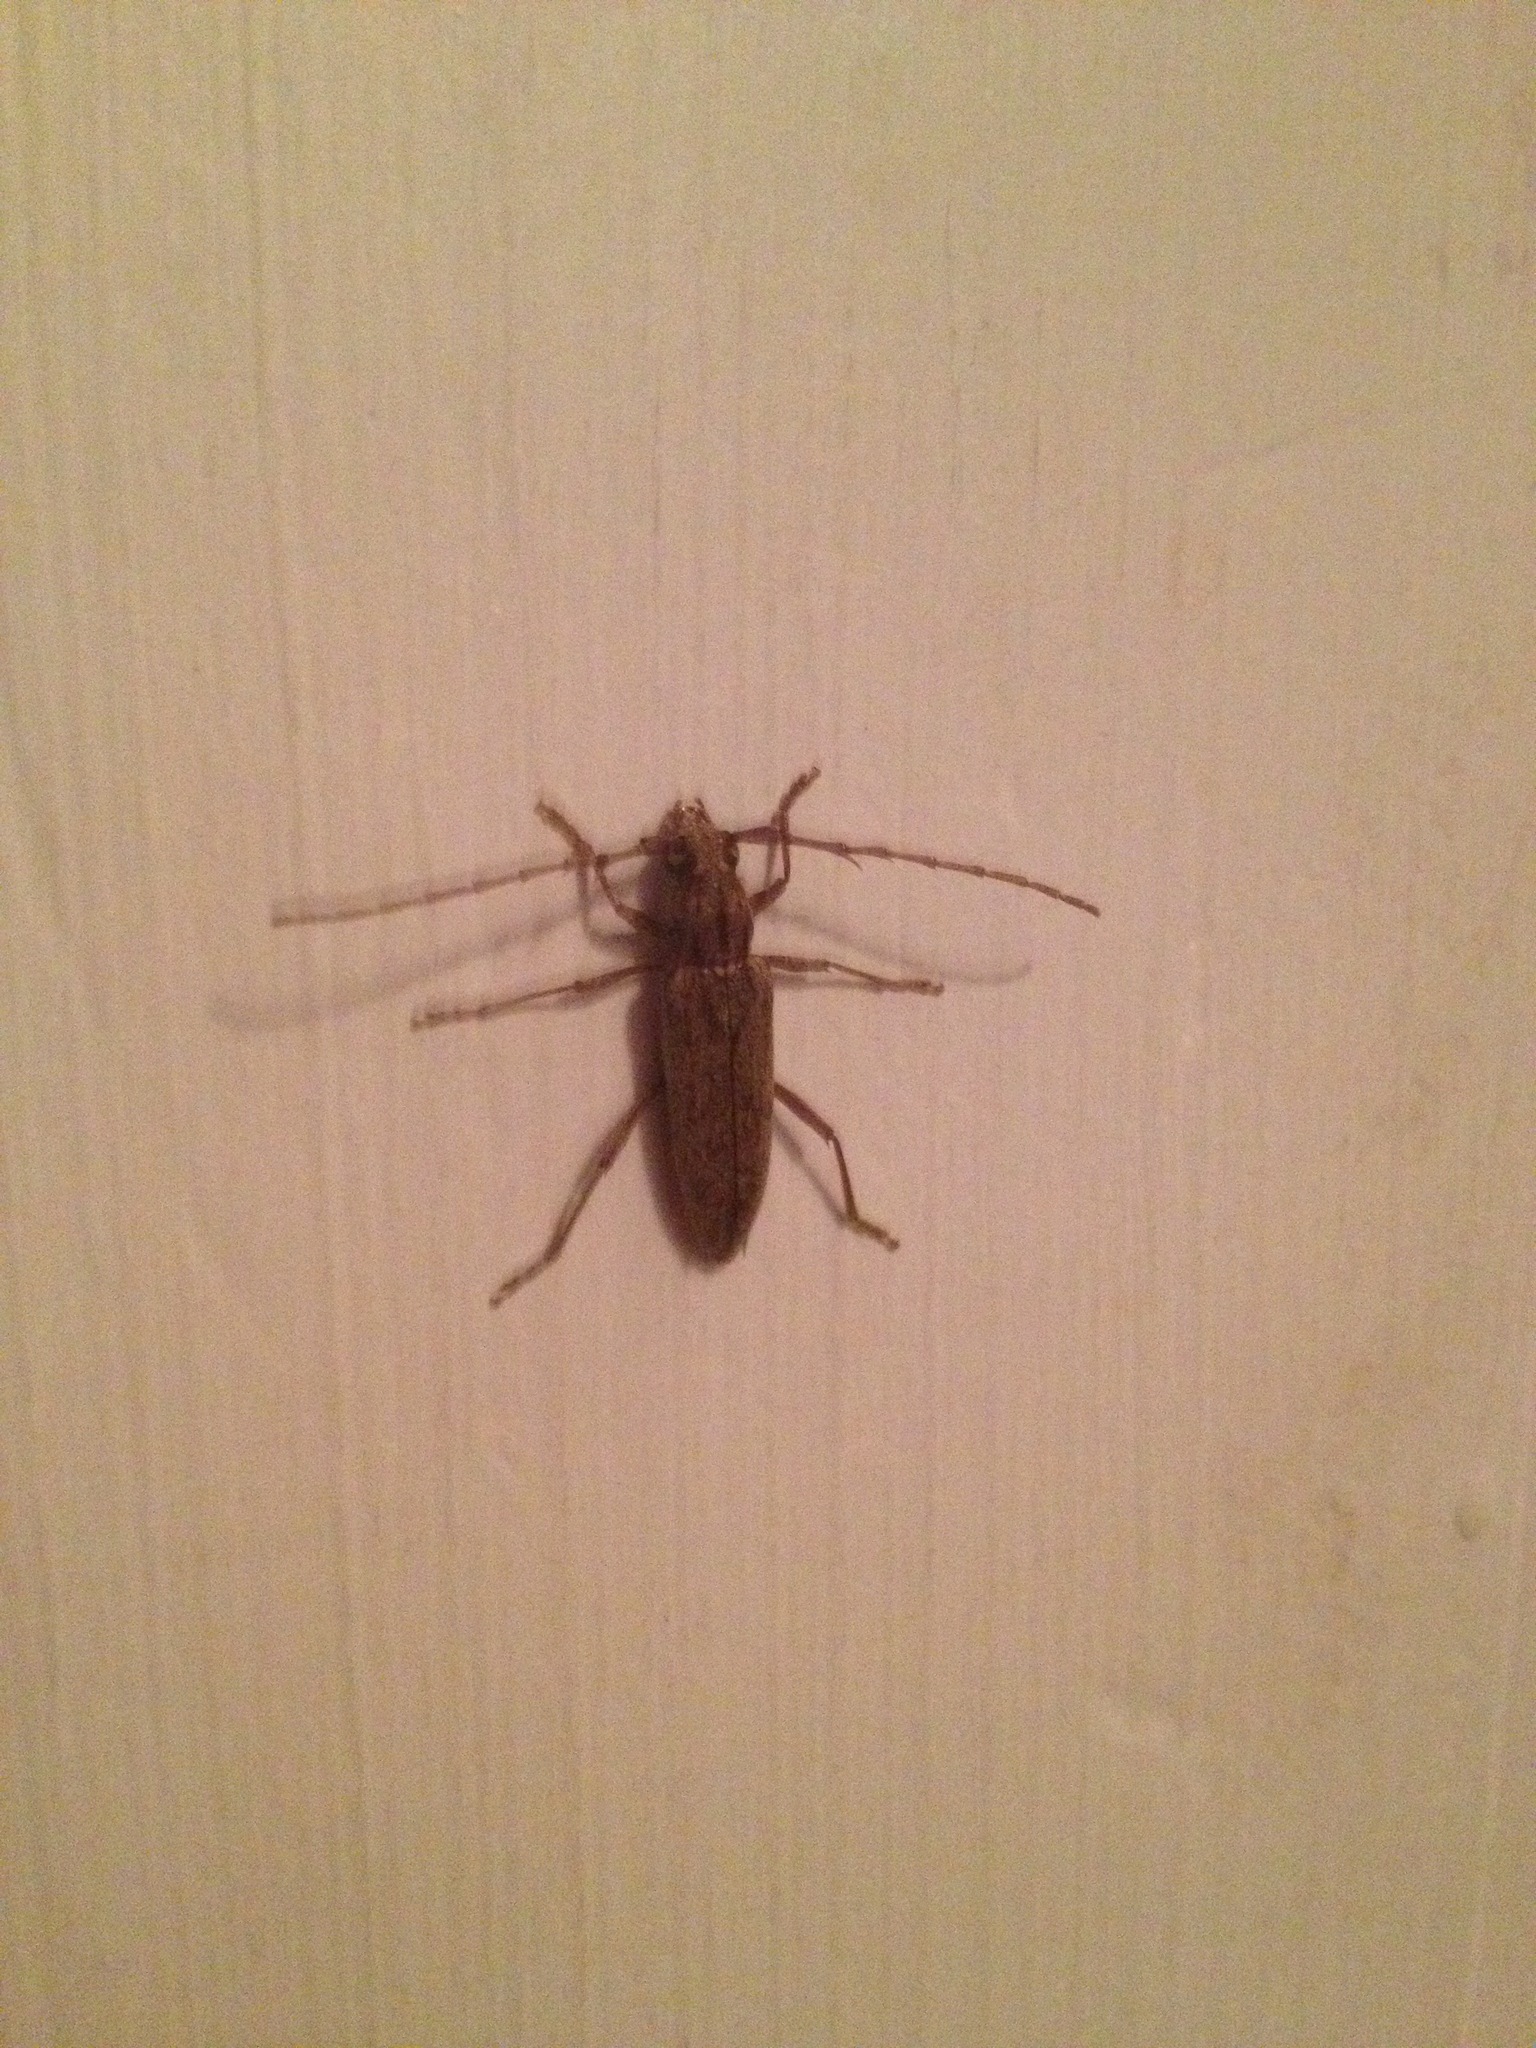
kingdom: Animalia
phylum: Arthropoda
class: Insecta
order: Coleoptera
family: Cerambycidae
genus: Elaphidion
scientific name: Elaphidion mucronatum
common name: Spined oak borer
